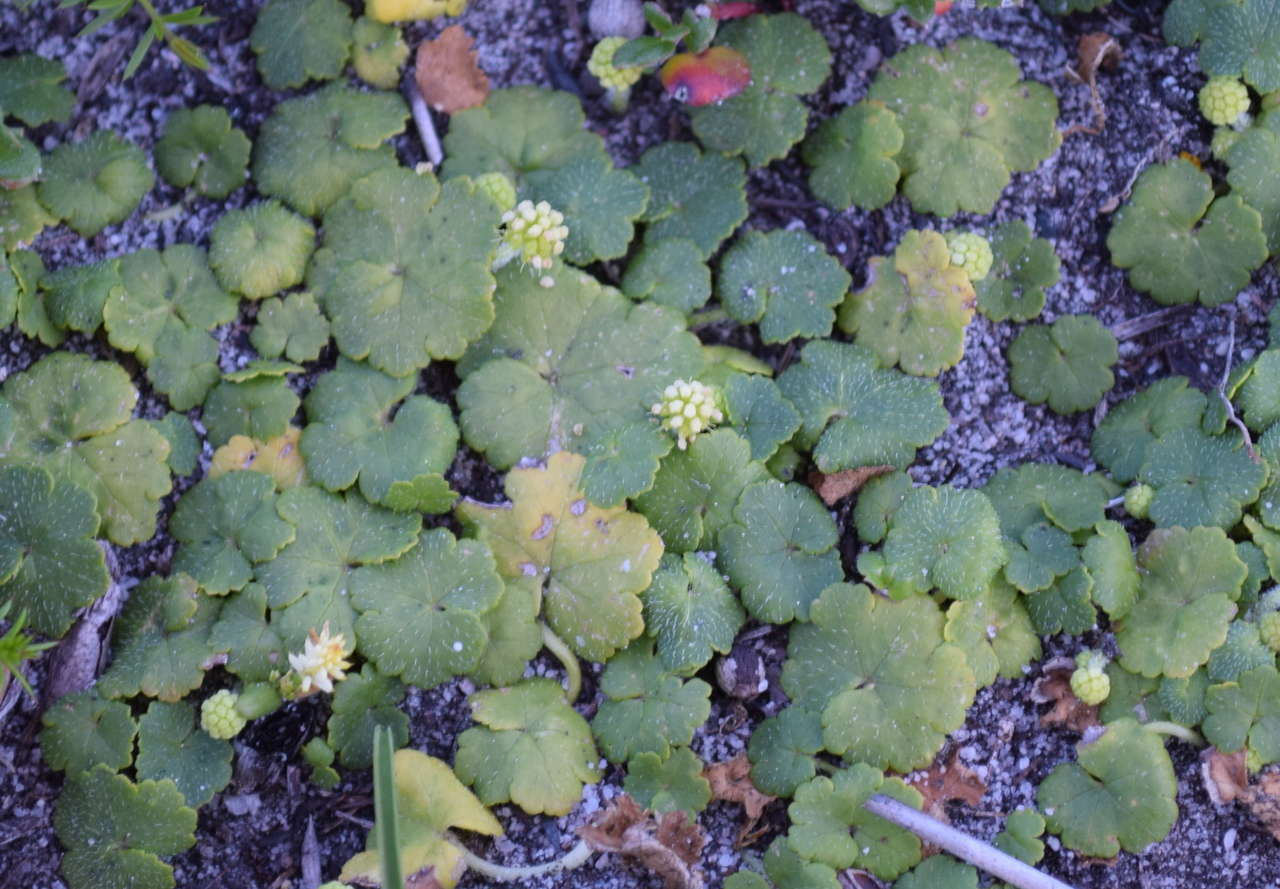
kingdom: Plantae
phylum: Tracheophyta
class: Magnoliopsida
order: Apiales
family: Araliaceae
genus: Hydrocotyle
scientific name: Hydrocotyle hirta
